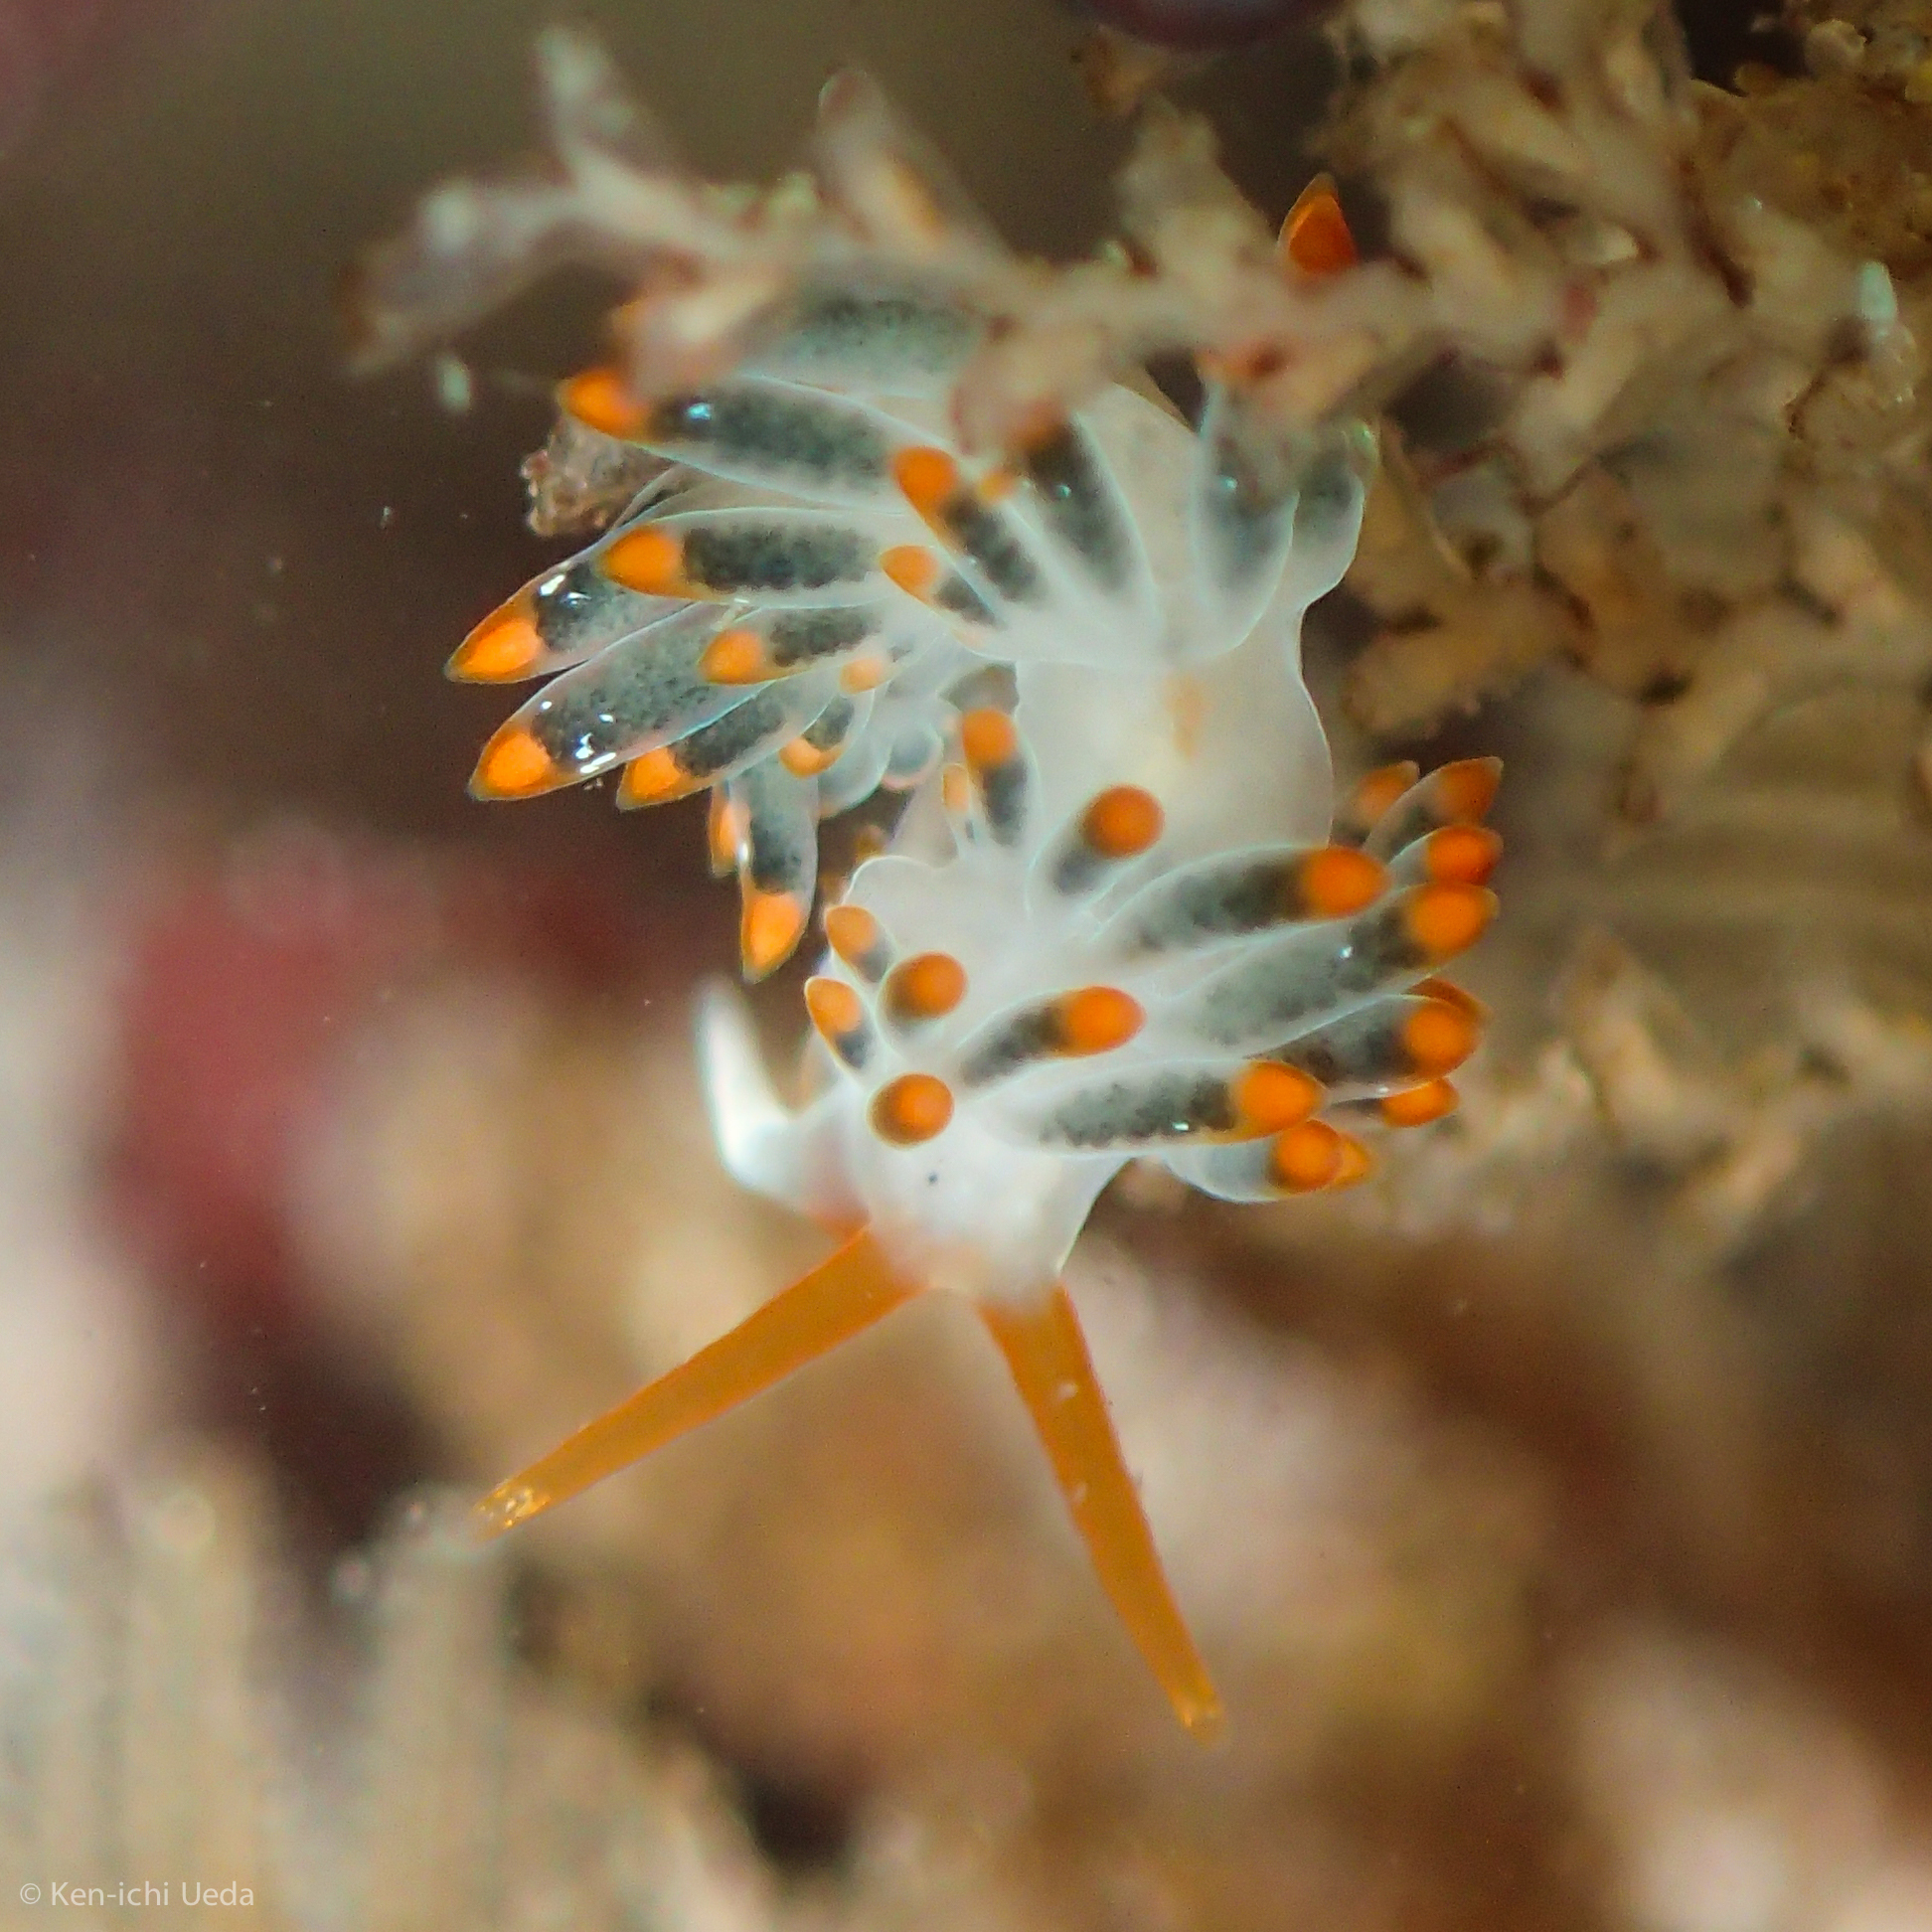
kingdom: Animalia
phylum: Mollusca
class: Gastropoda
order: Nudibranchia
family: Trinchesiidae
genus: Diaphoreolis
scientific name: Diaphoreolis lagunae
